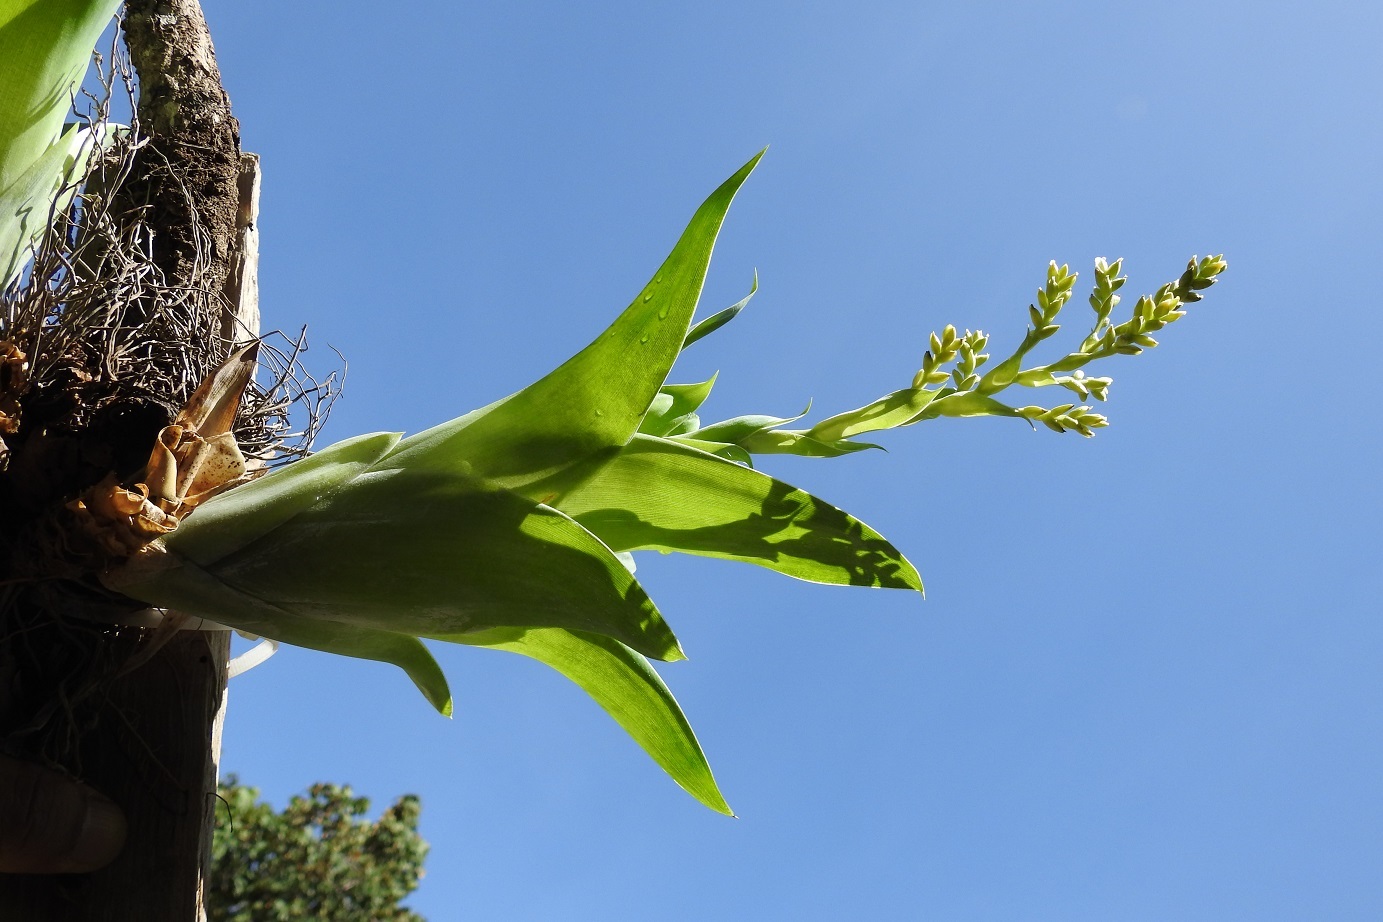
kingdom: Plantae
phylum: Tracheophyta
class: Liliopsida
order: Poales
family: Bromeliaceae
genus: Catopsis
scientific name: Catopsis oerstediana
